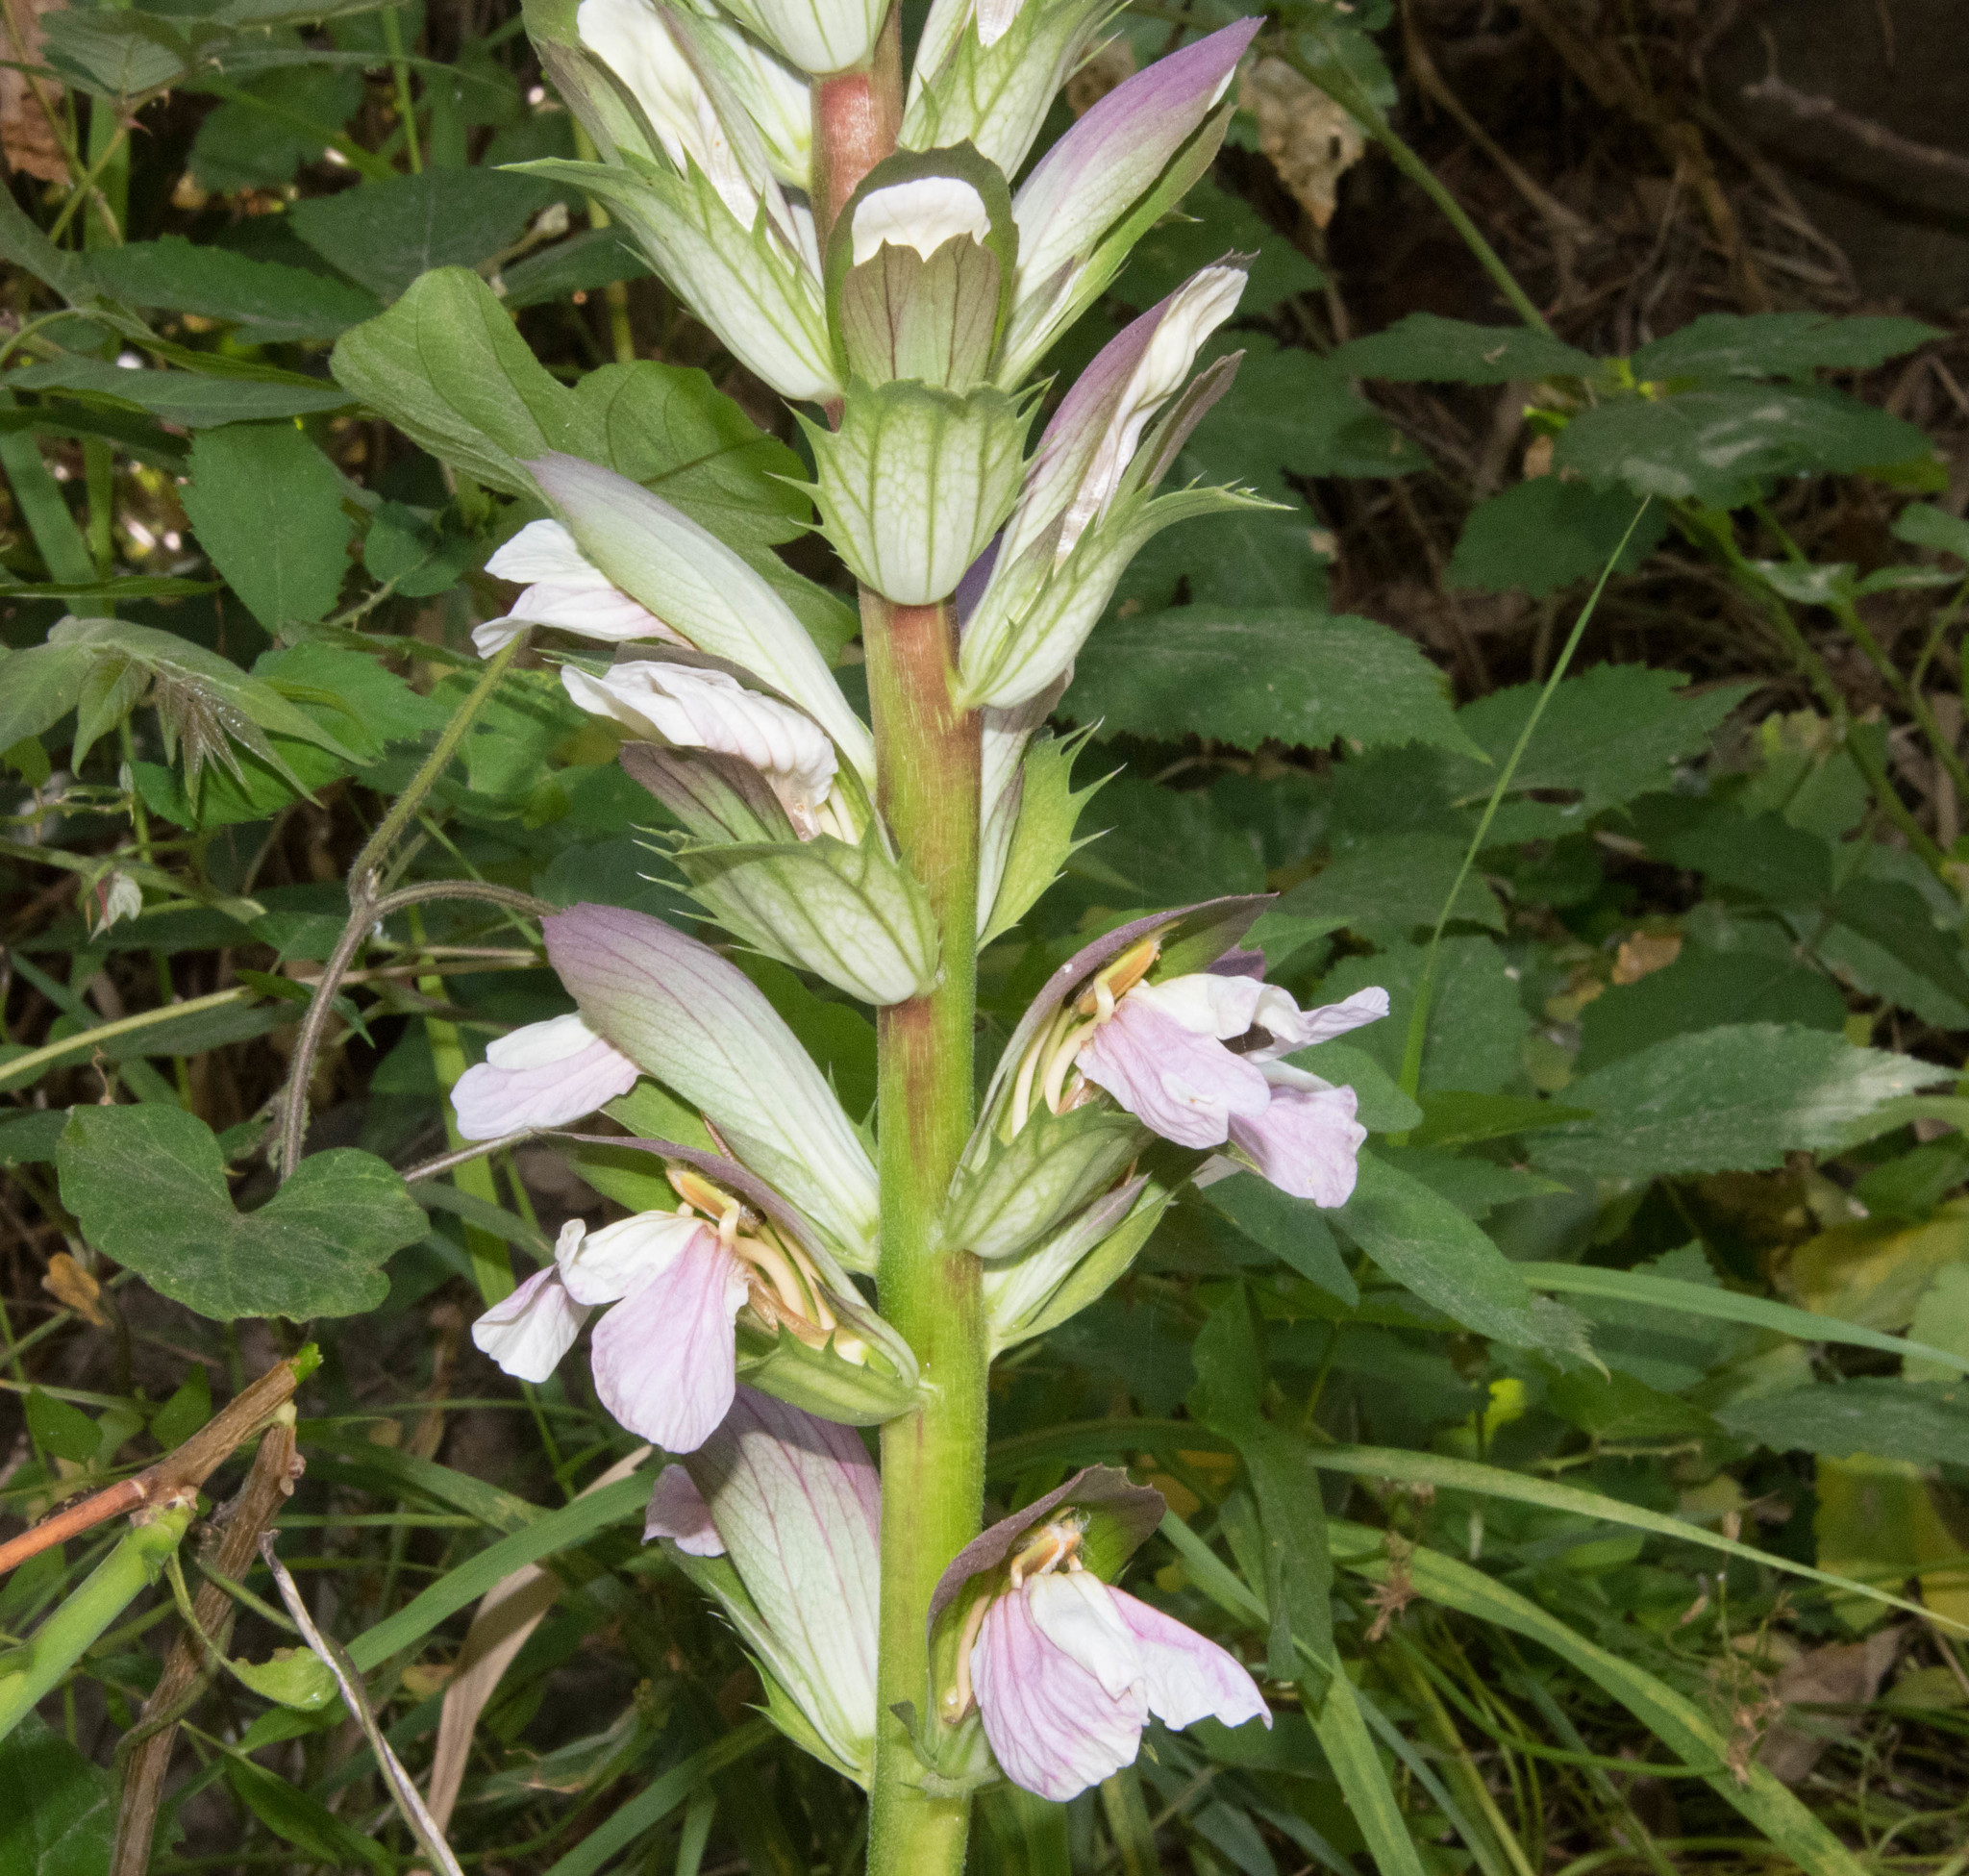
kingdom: Plantae
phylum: Tracheophyta
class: Magnoliopsida
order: Lamiales
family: Acanthaceae
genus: Acanthus
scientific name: Acanthus mollis
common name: Bear's-breech
